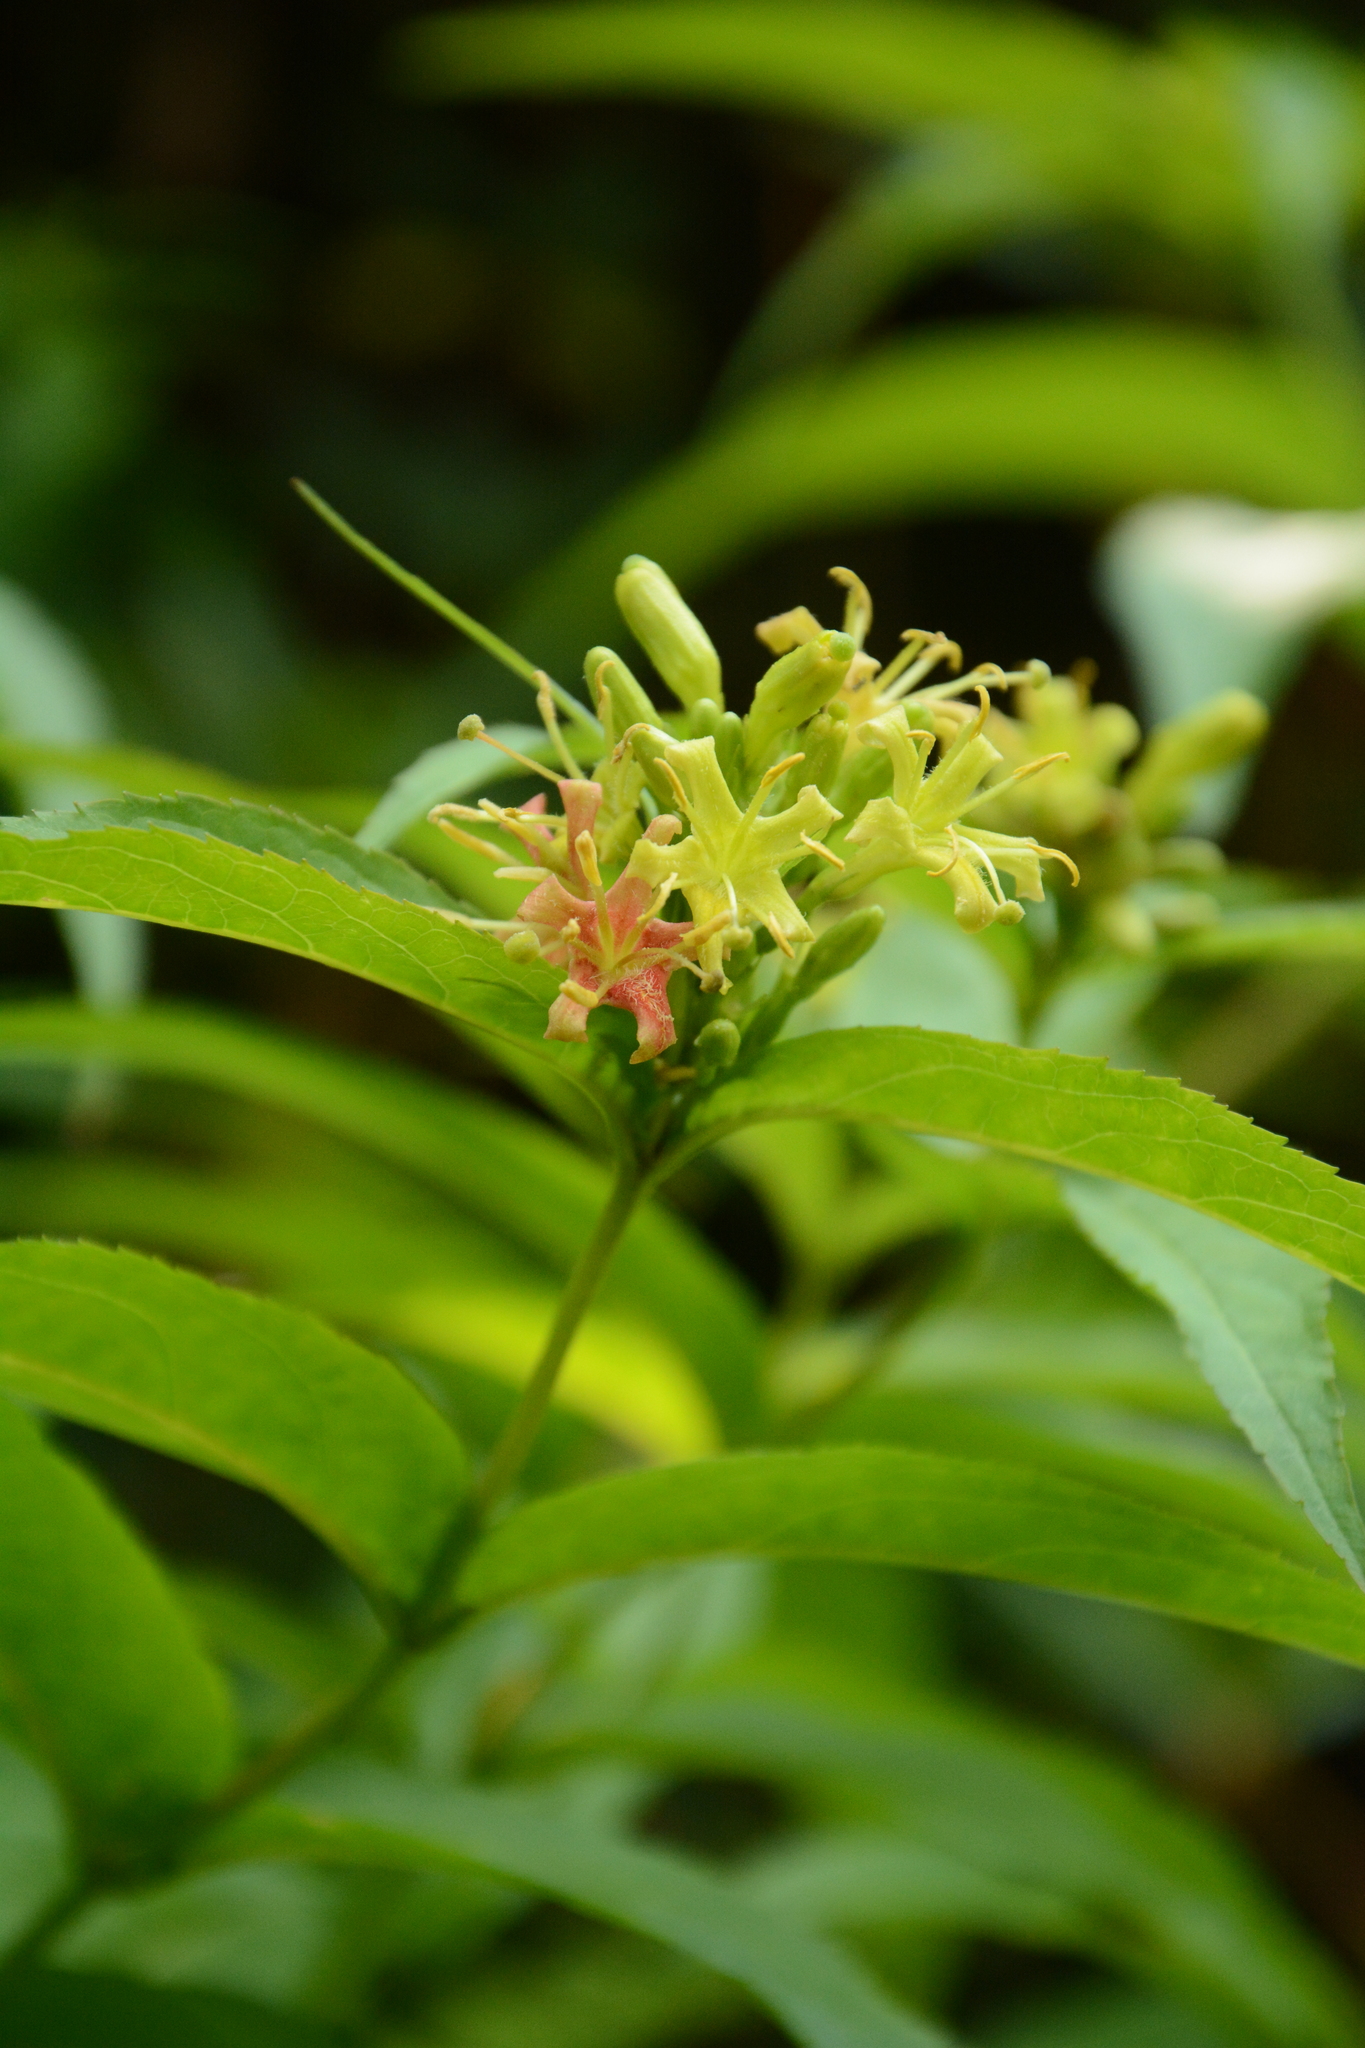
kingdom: Plantae
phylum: Tracheophyta
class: Magnoliopsida
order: Dipsacales
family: Caprifoliaceae
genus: Diervilla
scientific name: Diervilla sessilifolia
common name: Bush-honeysuckle
